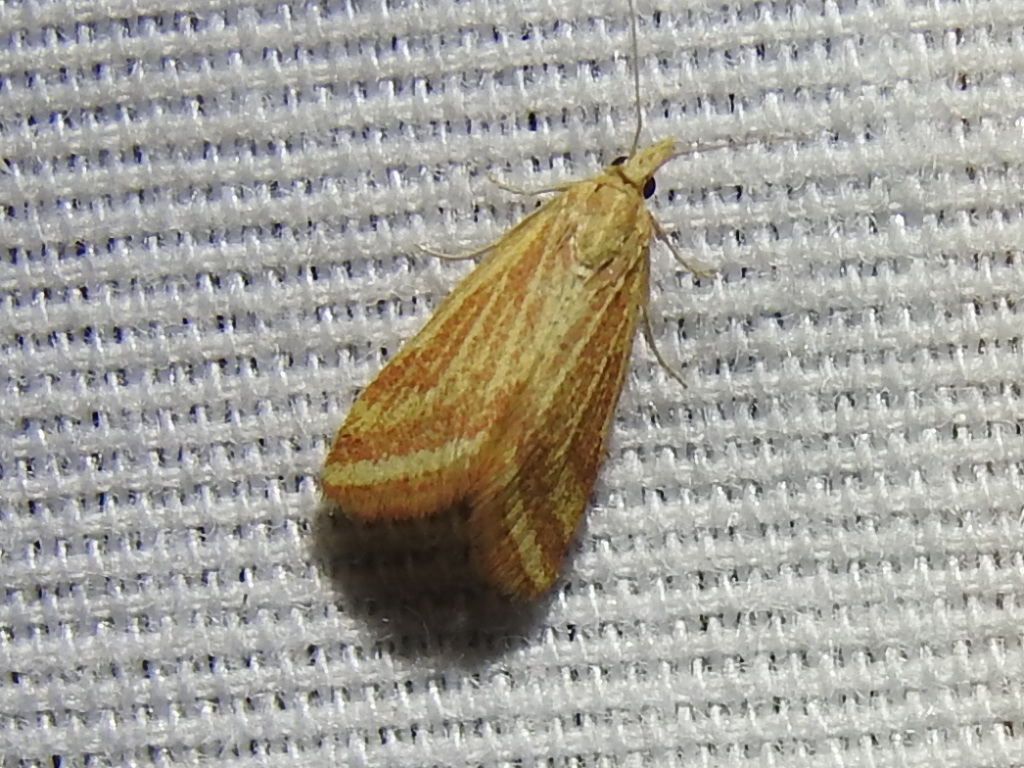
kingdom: Animalia
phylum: Arthropoda
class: Insecta
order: Lepidoptera
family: Crambidae
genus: Microtheoris
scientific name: Microtheoris ophionalis
